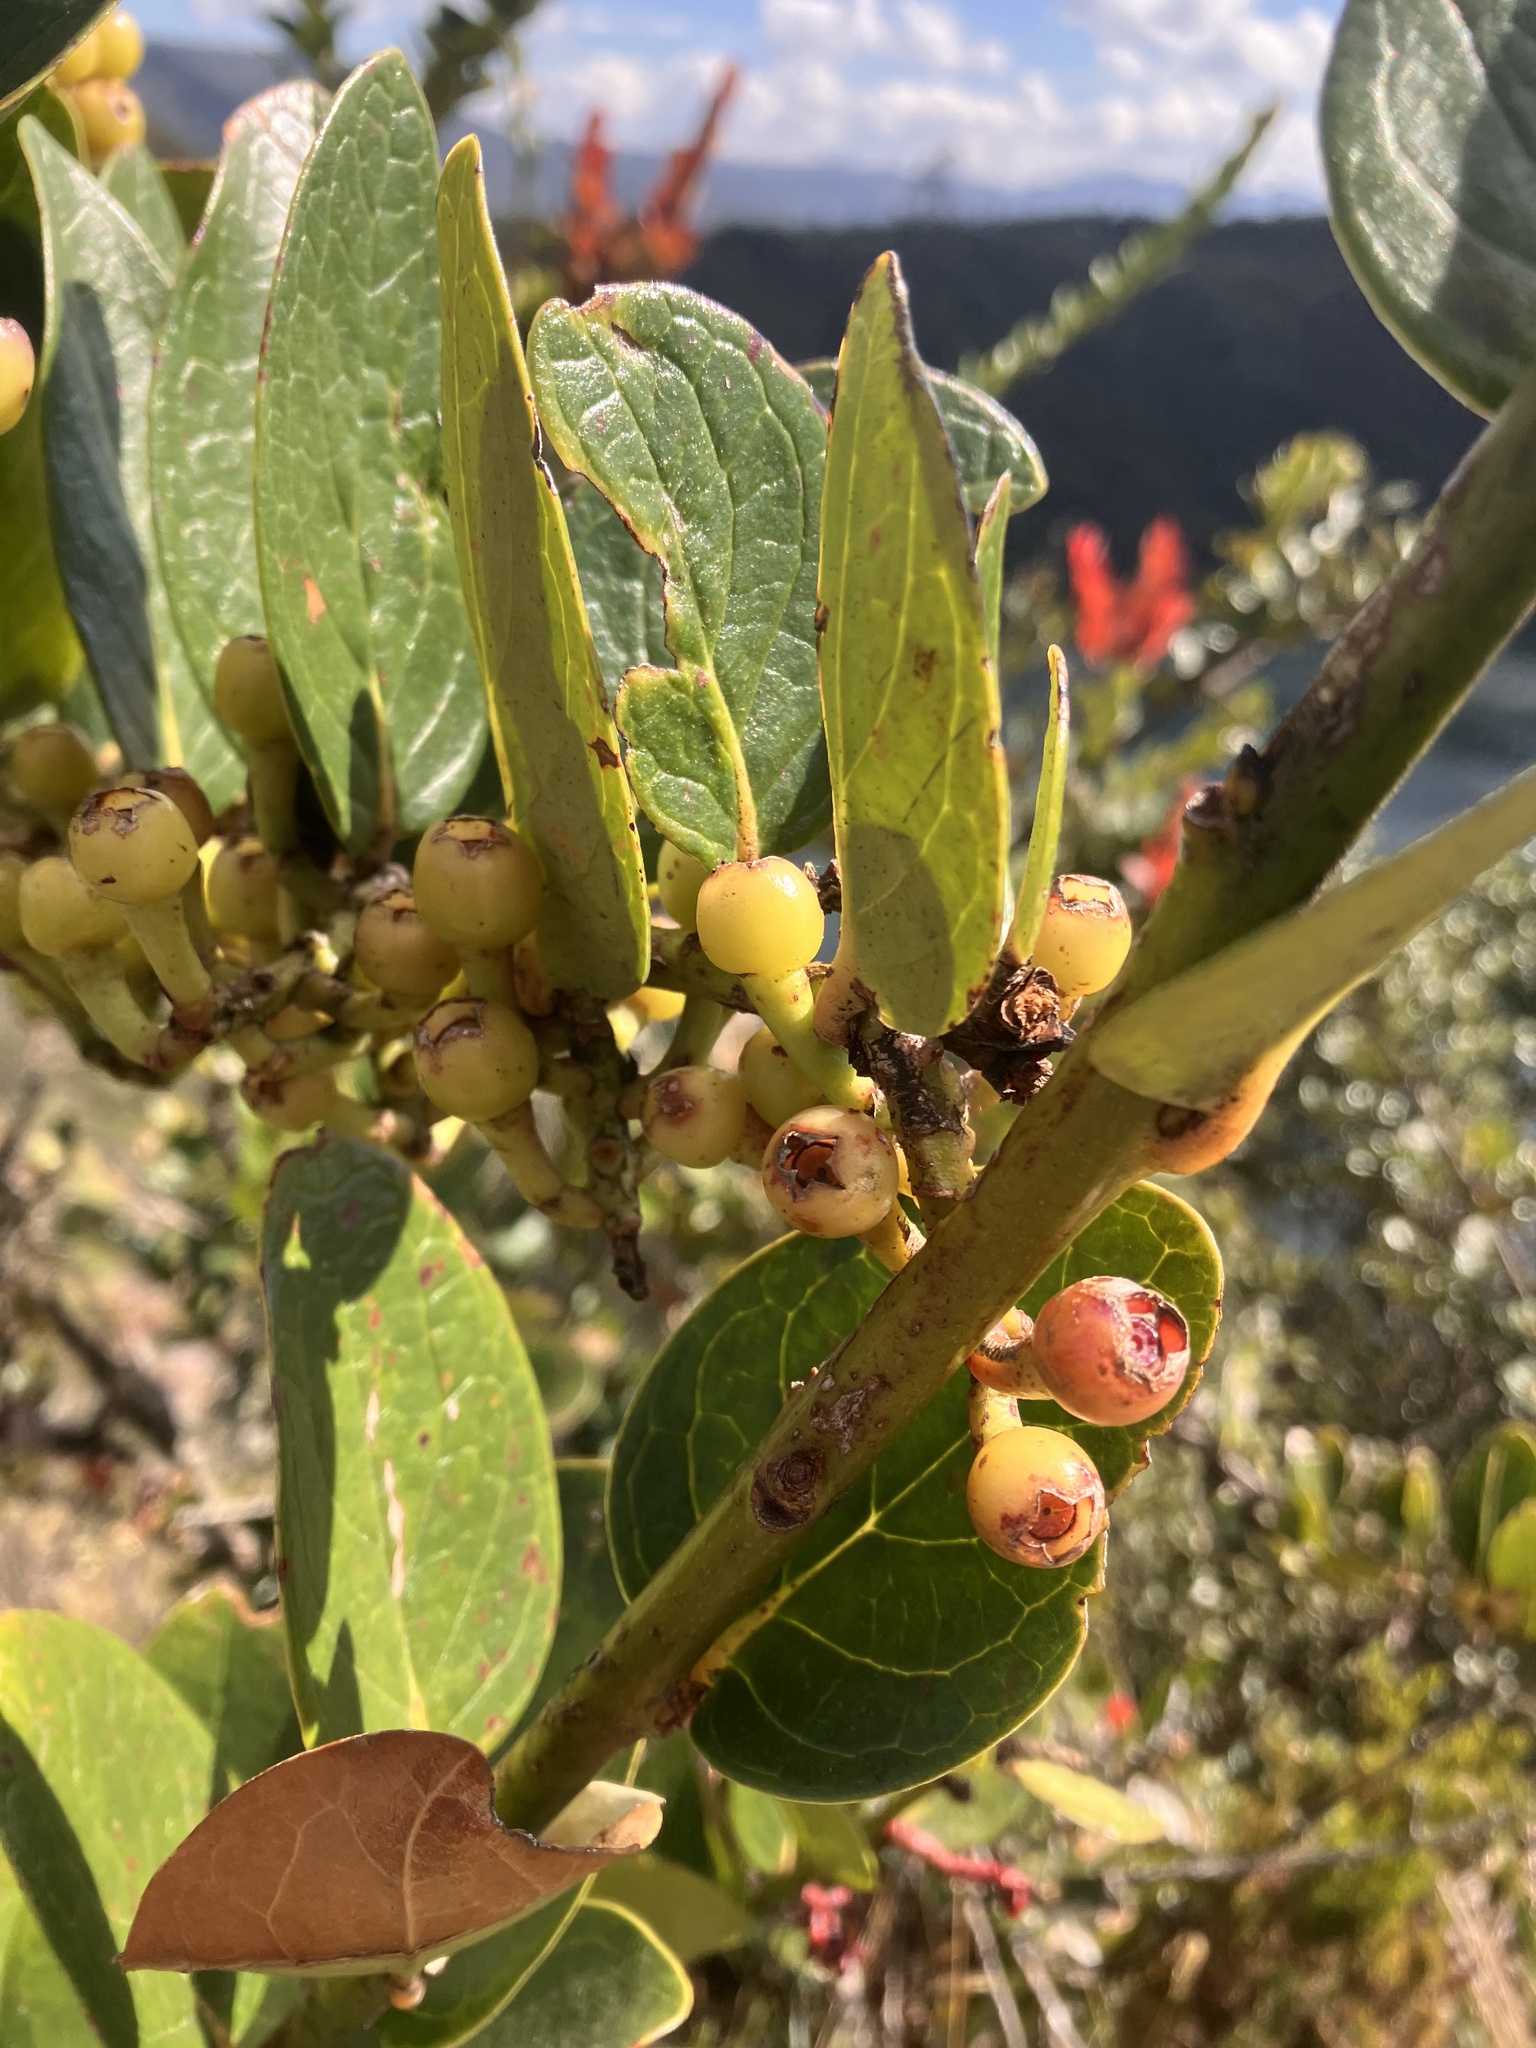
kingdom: Plantae
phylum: Tracheophyta
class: Magnoliopsida
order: Ericales
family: Ericaceae
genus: Macleania
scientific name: Macleania rupestris
